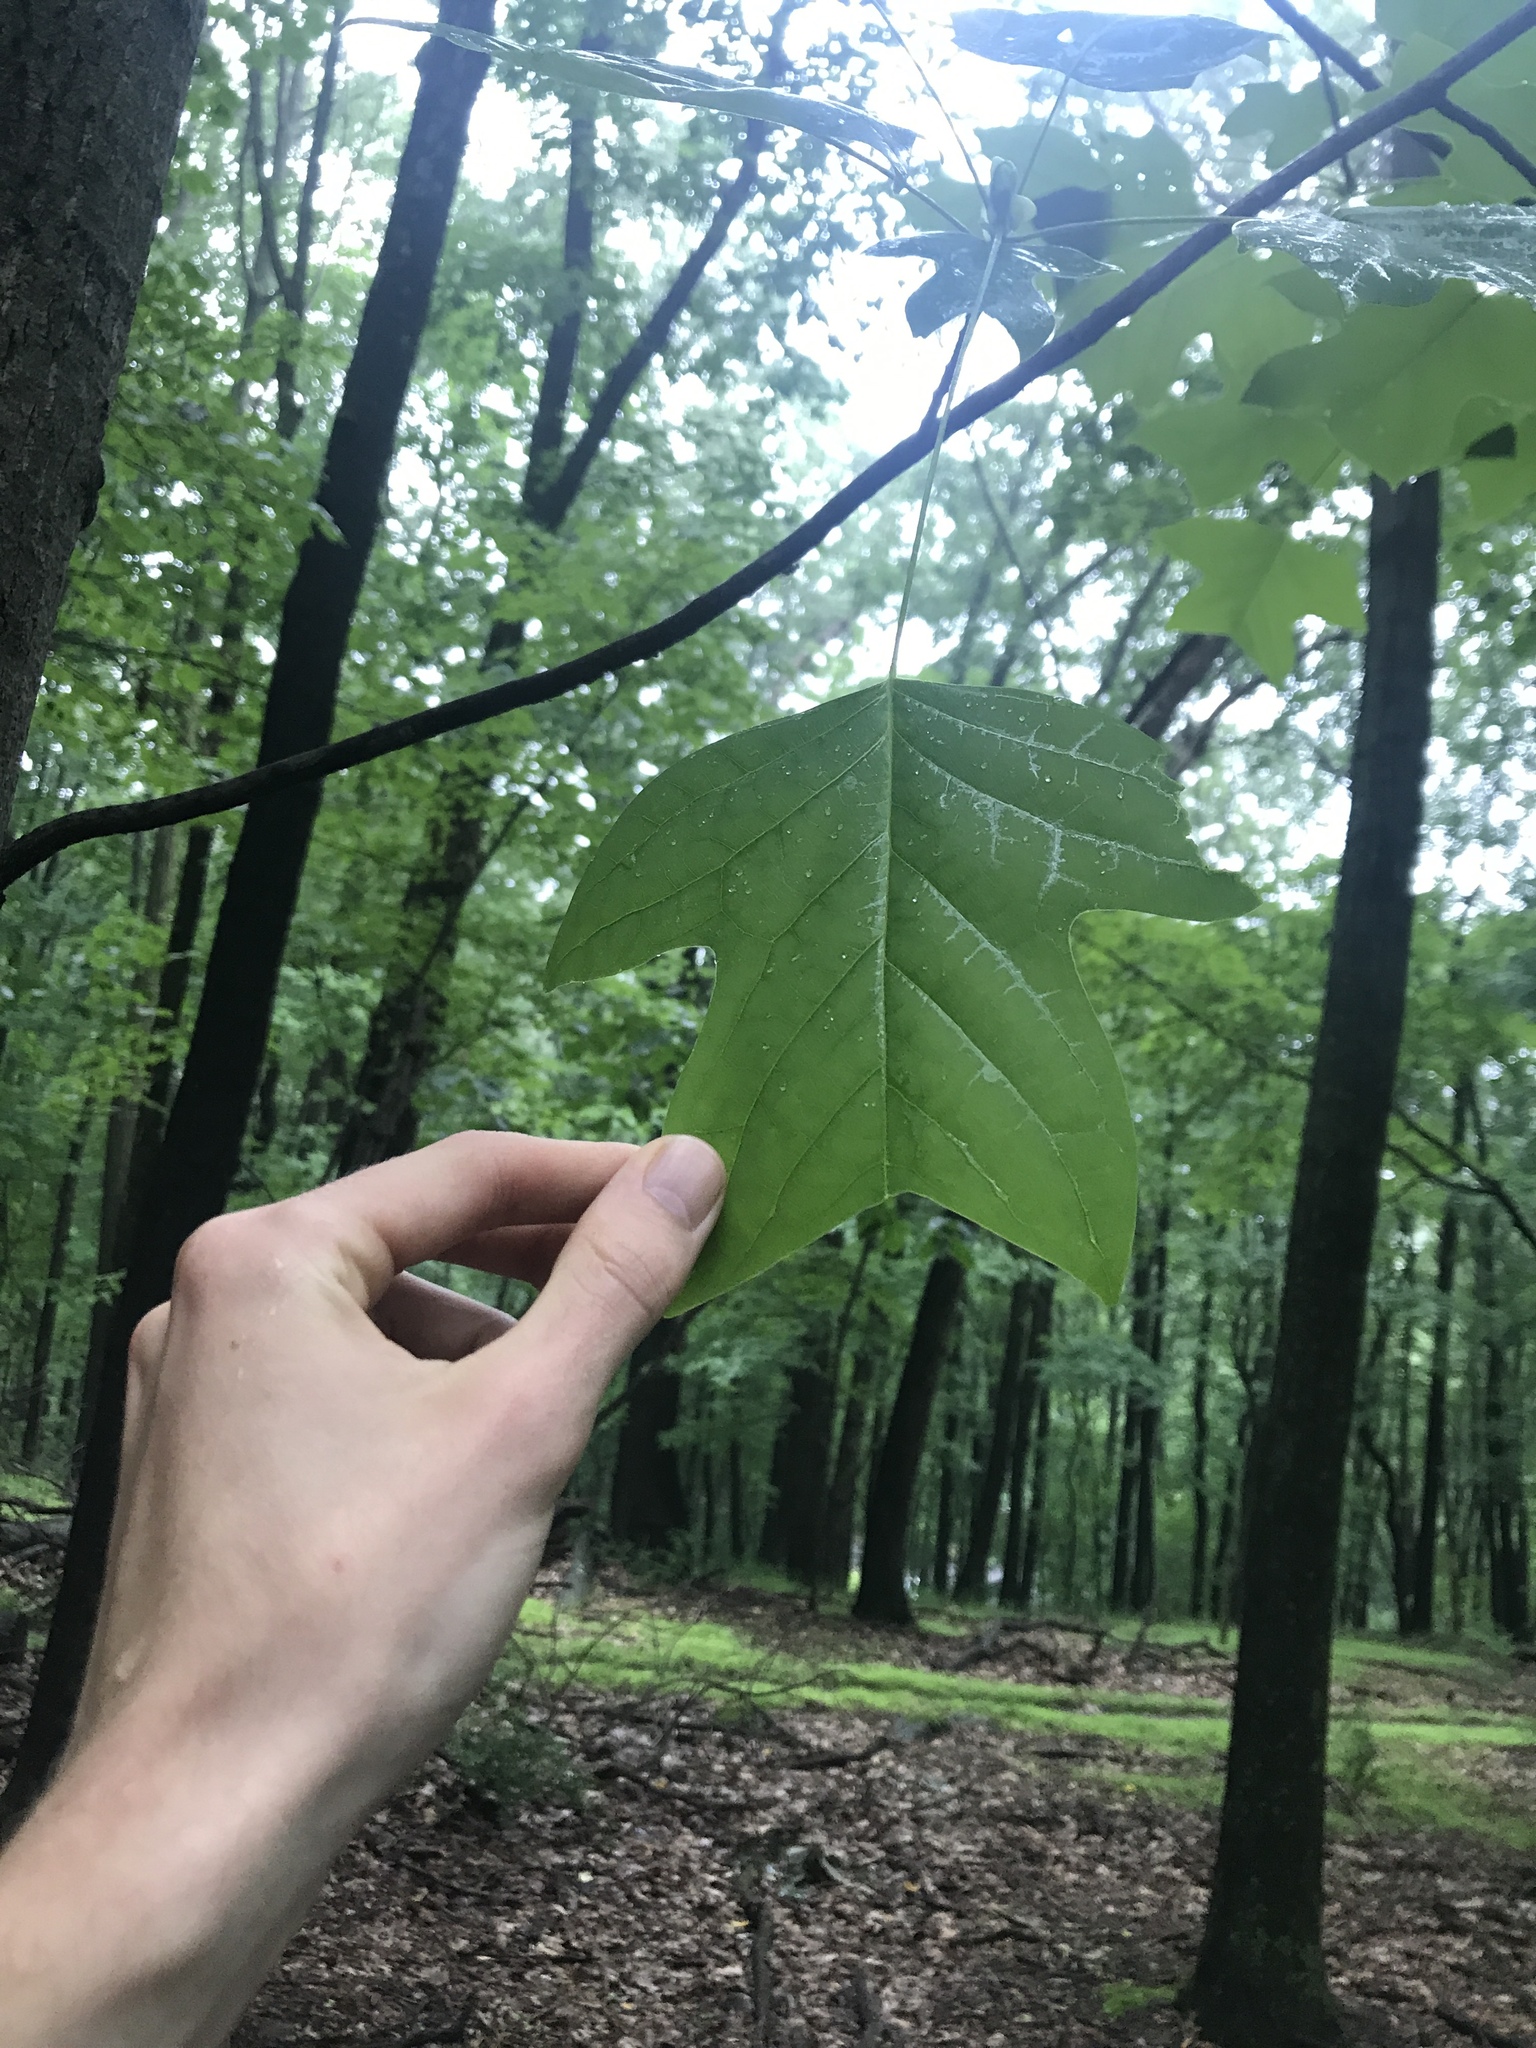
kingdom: Plantae
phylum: Tracheophyta
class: Magnoliopsida
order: Magnoliales
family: Magnoliaceae
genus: Liriodendron
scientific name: Liriodendron tulipifera
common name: Tulip tree
